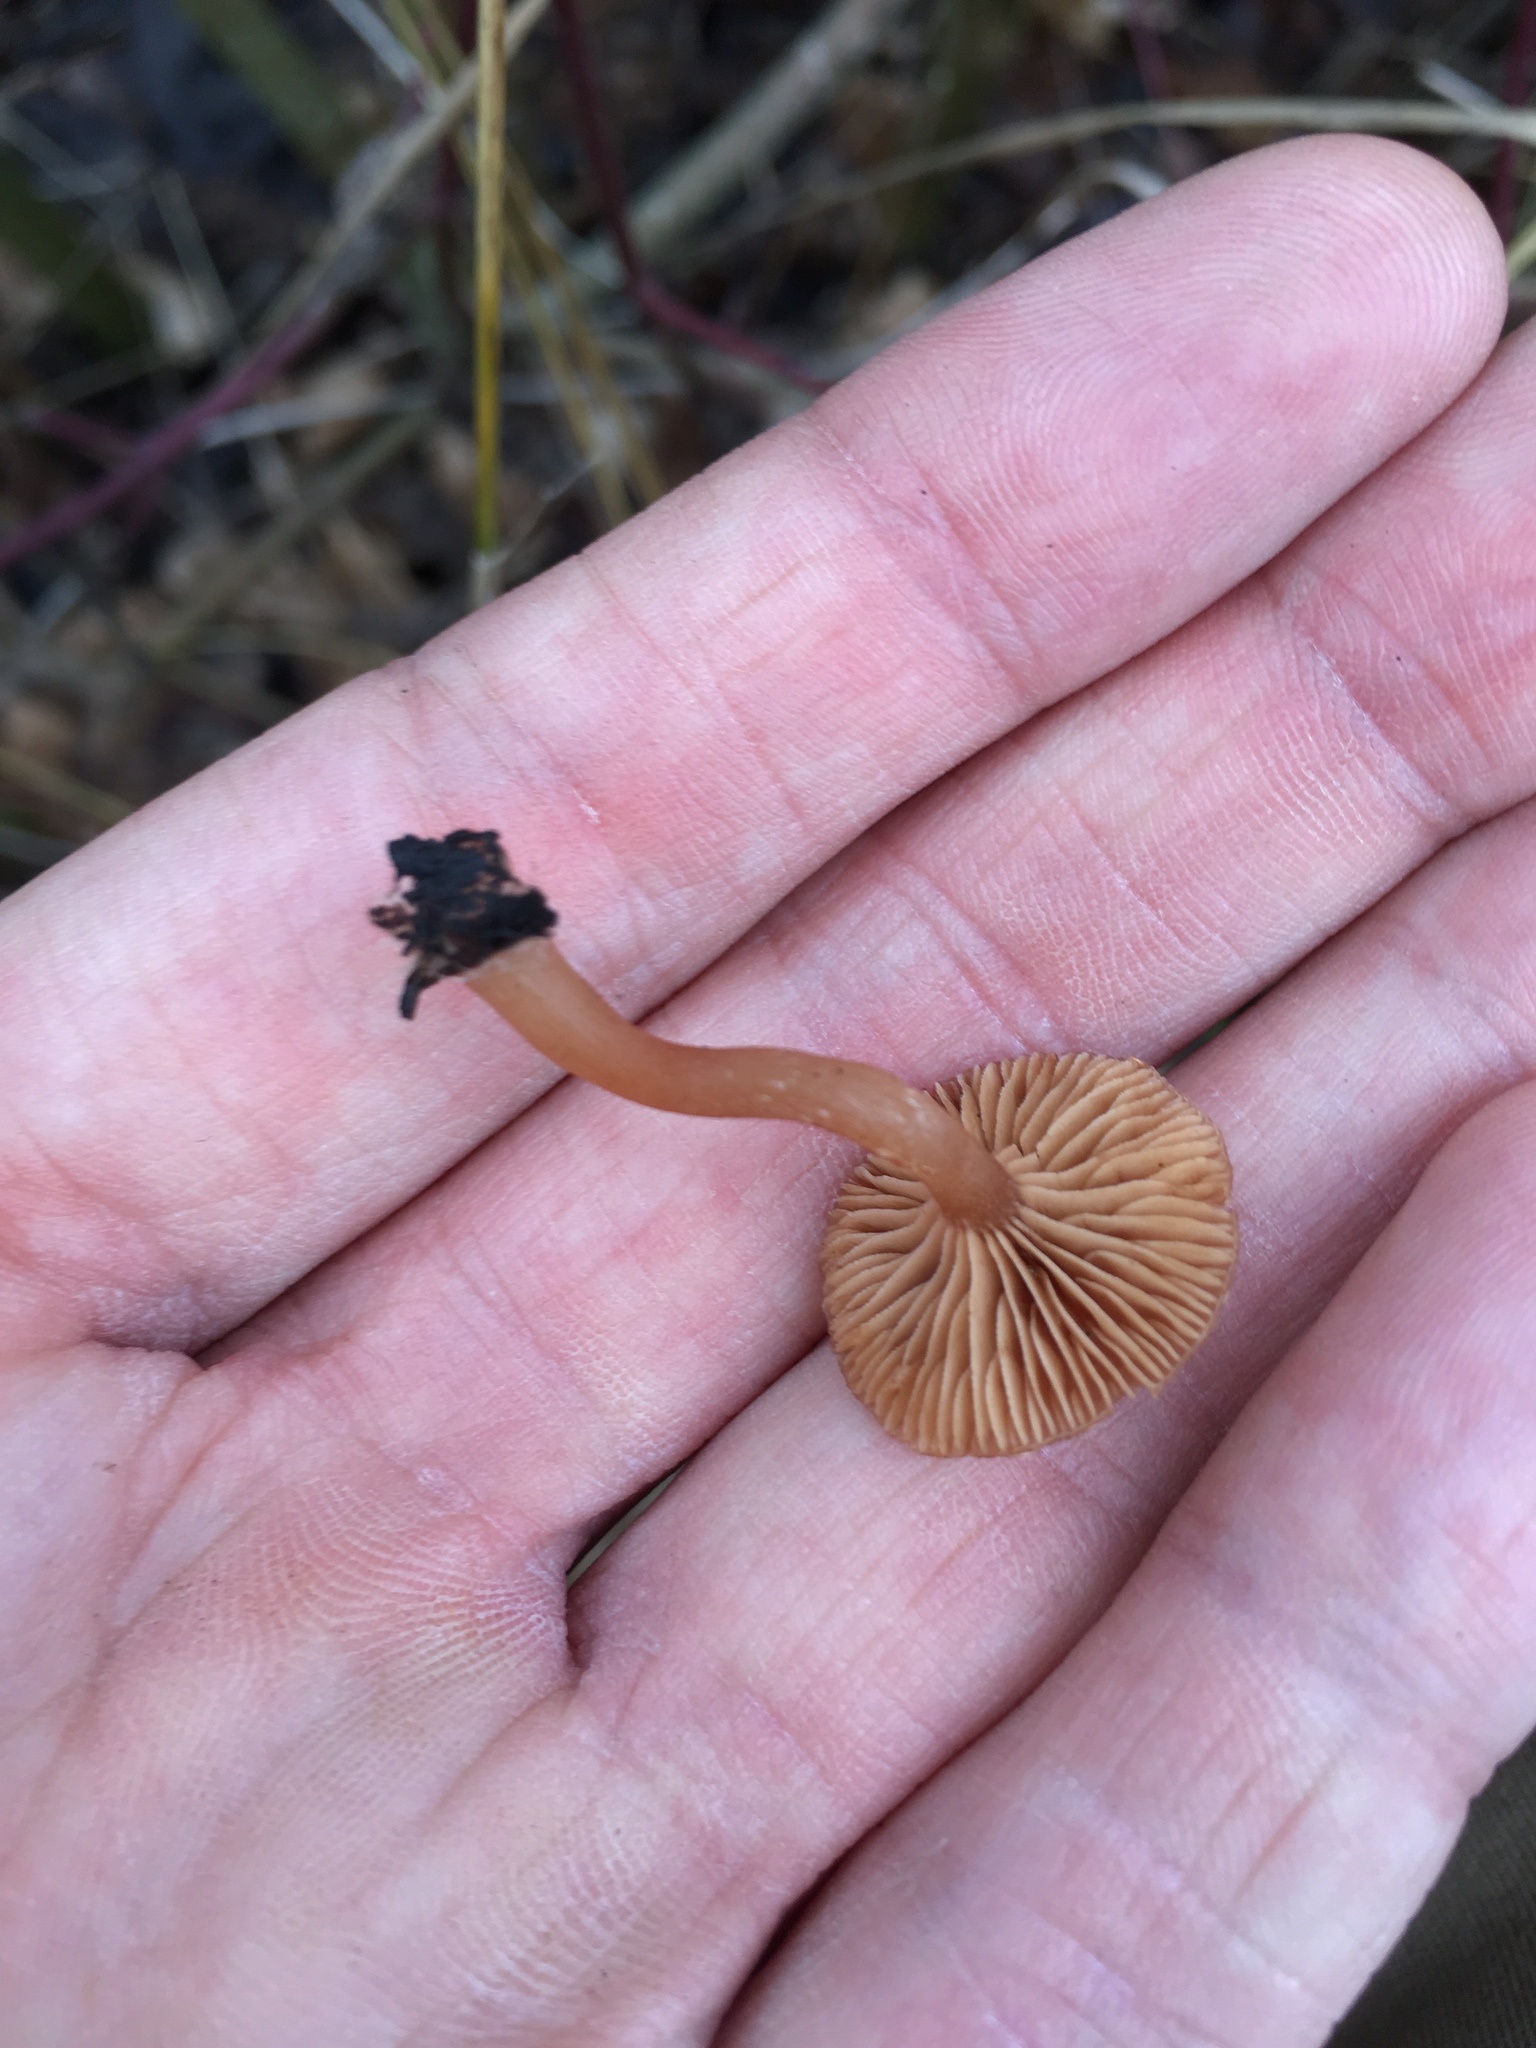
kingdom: Fungi
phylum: Basidiomycota
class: Agaricomycetes
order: Agaricales
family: Tubariaceae
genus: Tubaria
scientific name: Tubaria furfuracea
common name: Scurfy twiglet
